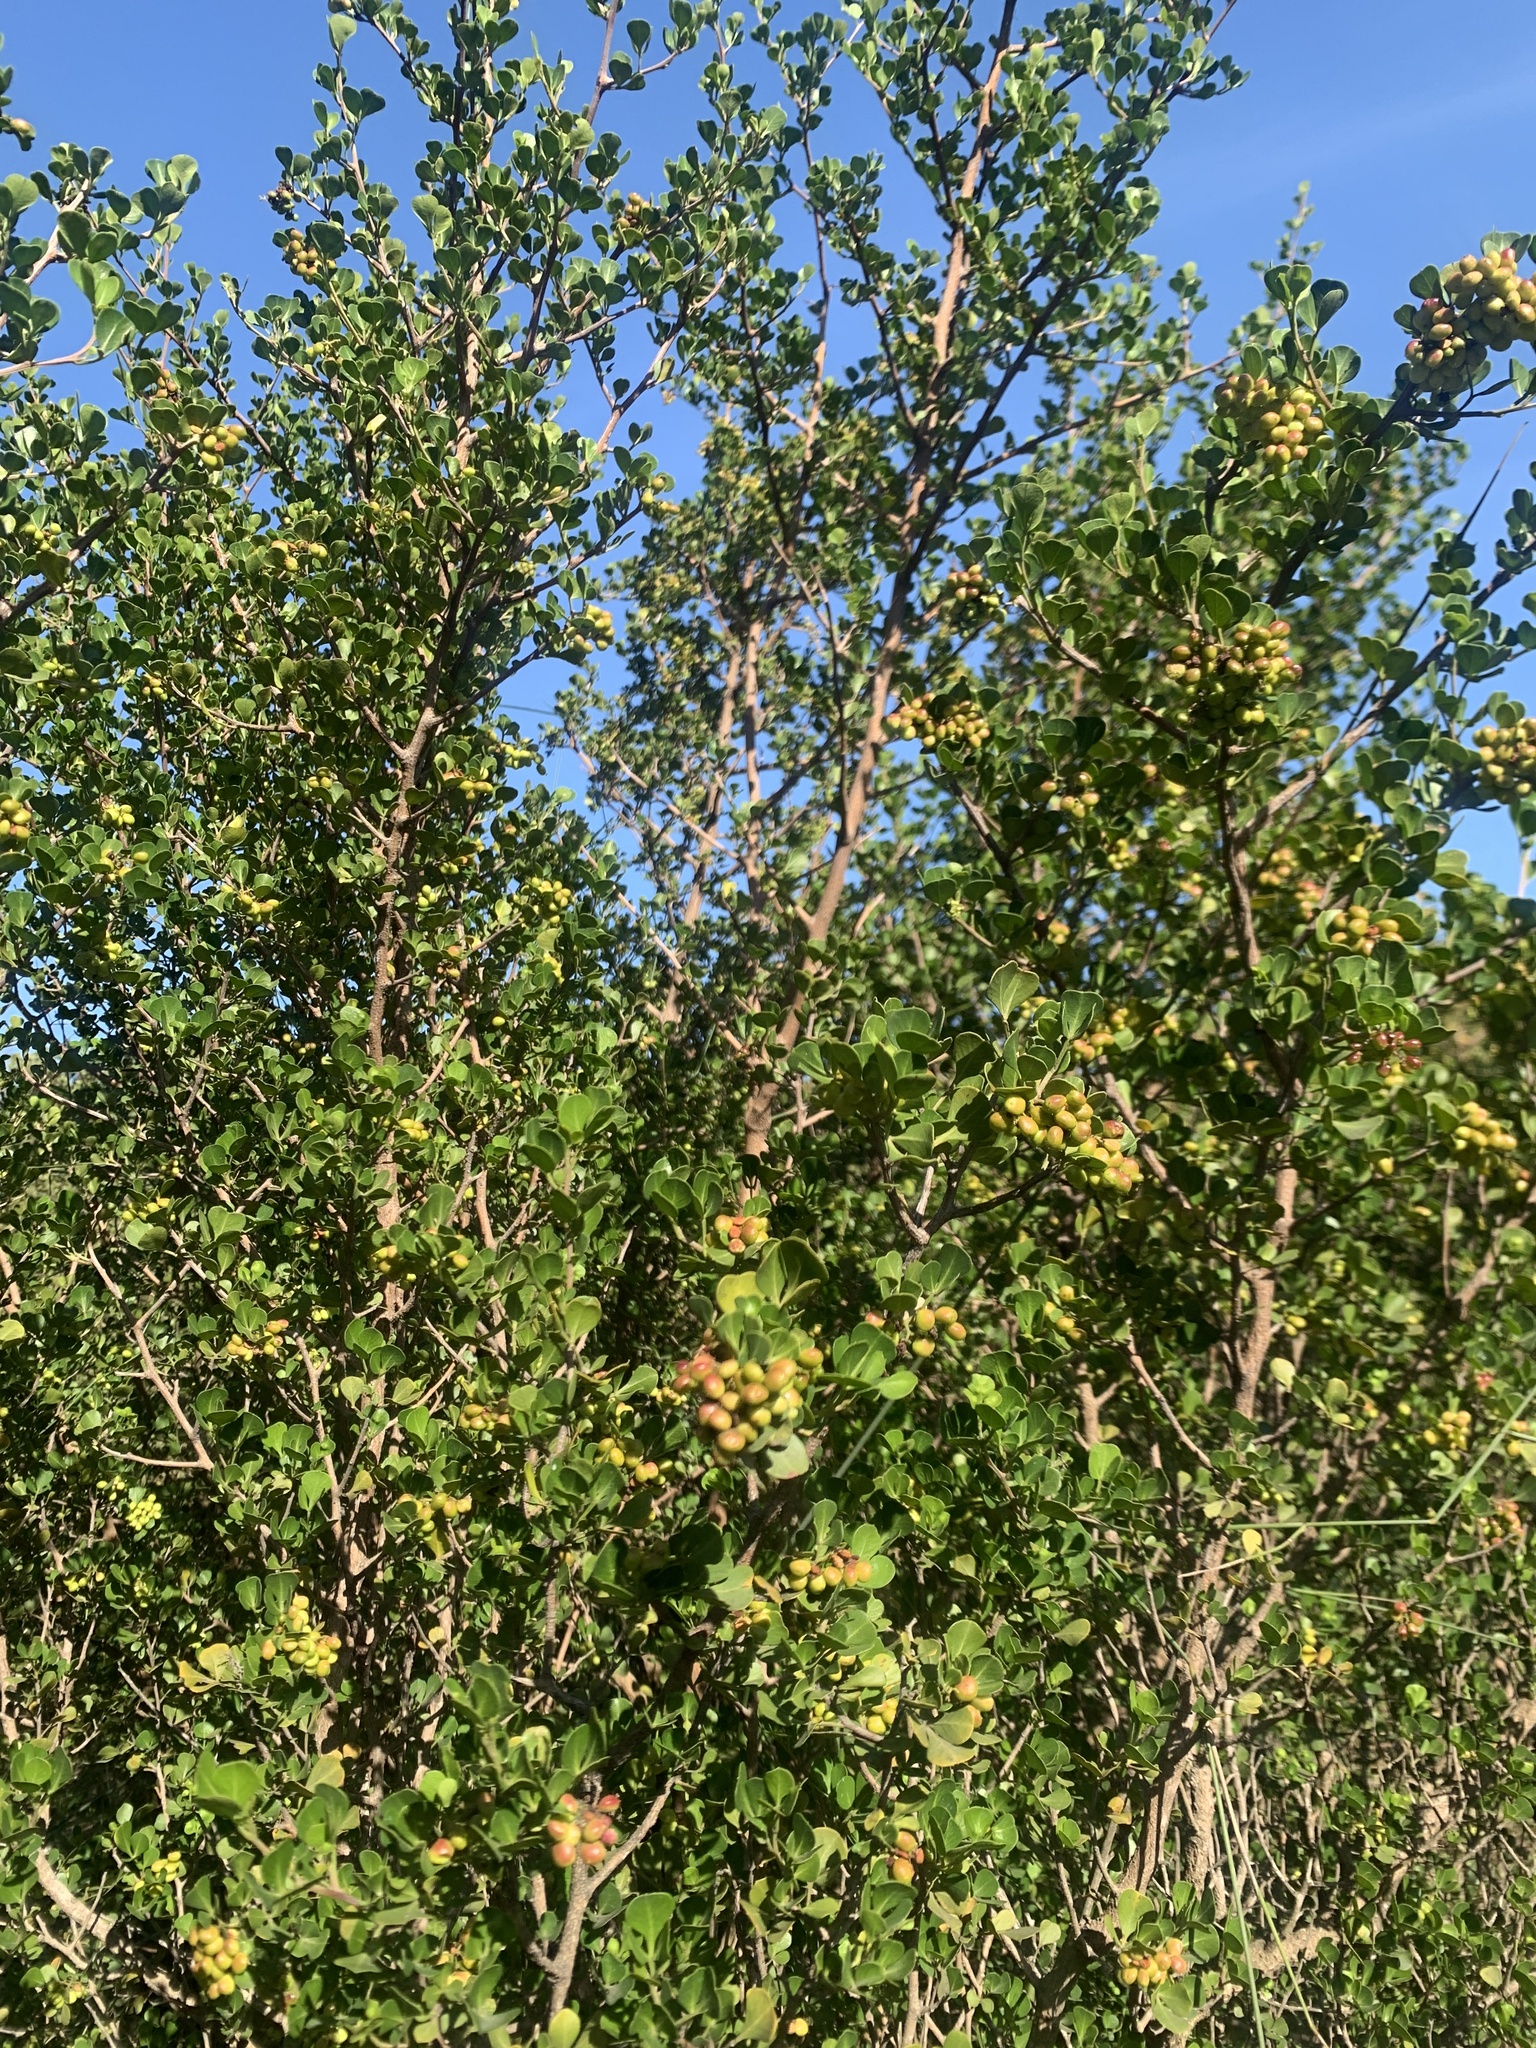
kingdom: Plantae
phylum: Tracheophyta
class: Magnoliopsida
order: Sapindales
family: Anacardiaceae
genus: Searsia
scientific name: Searsia glauca
